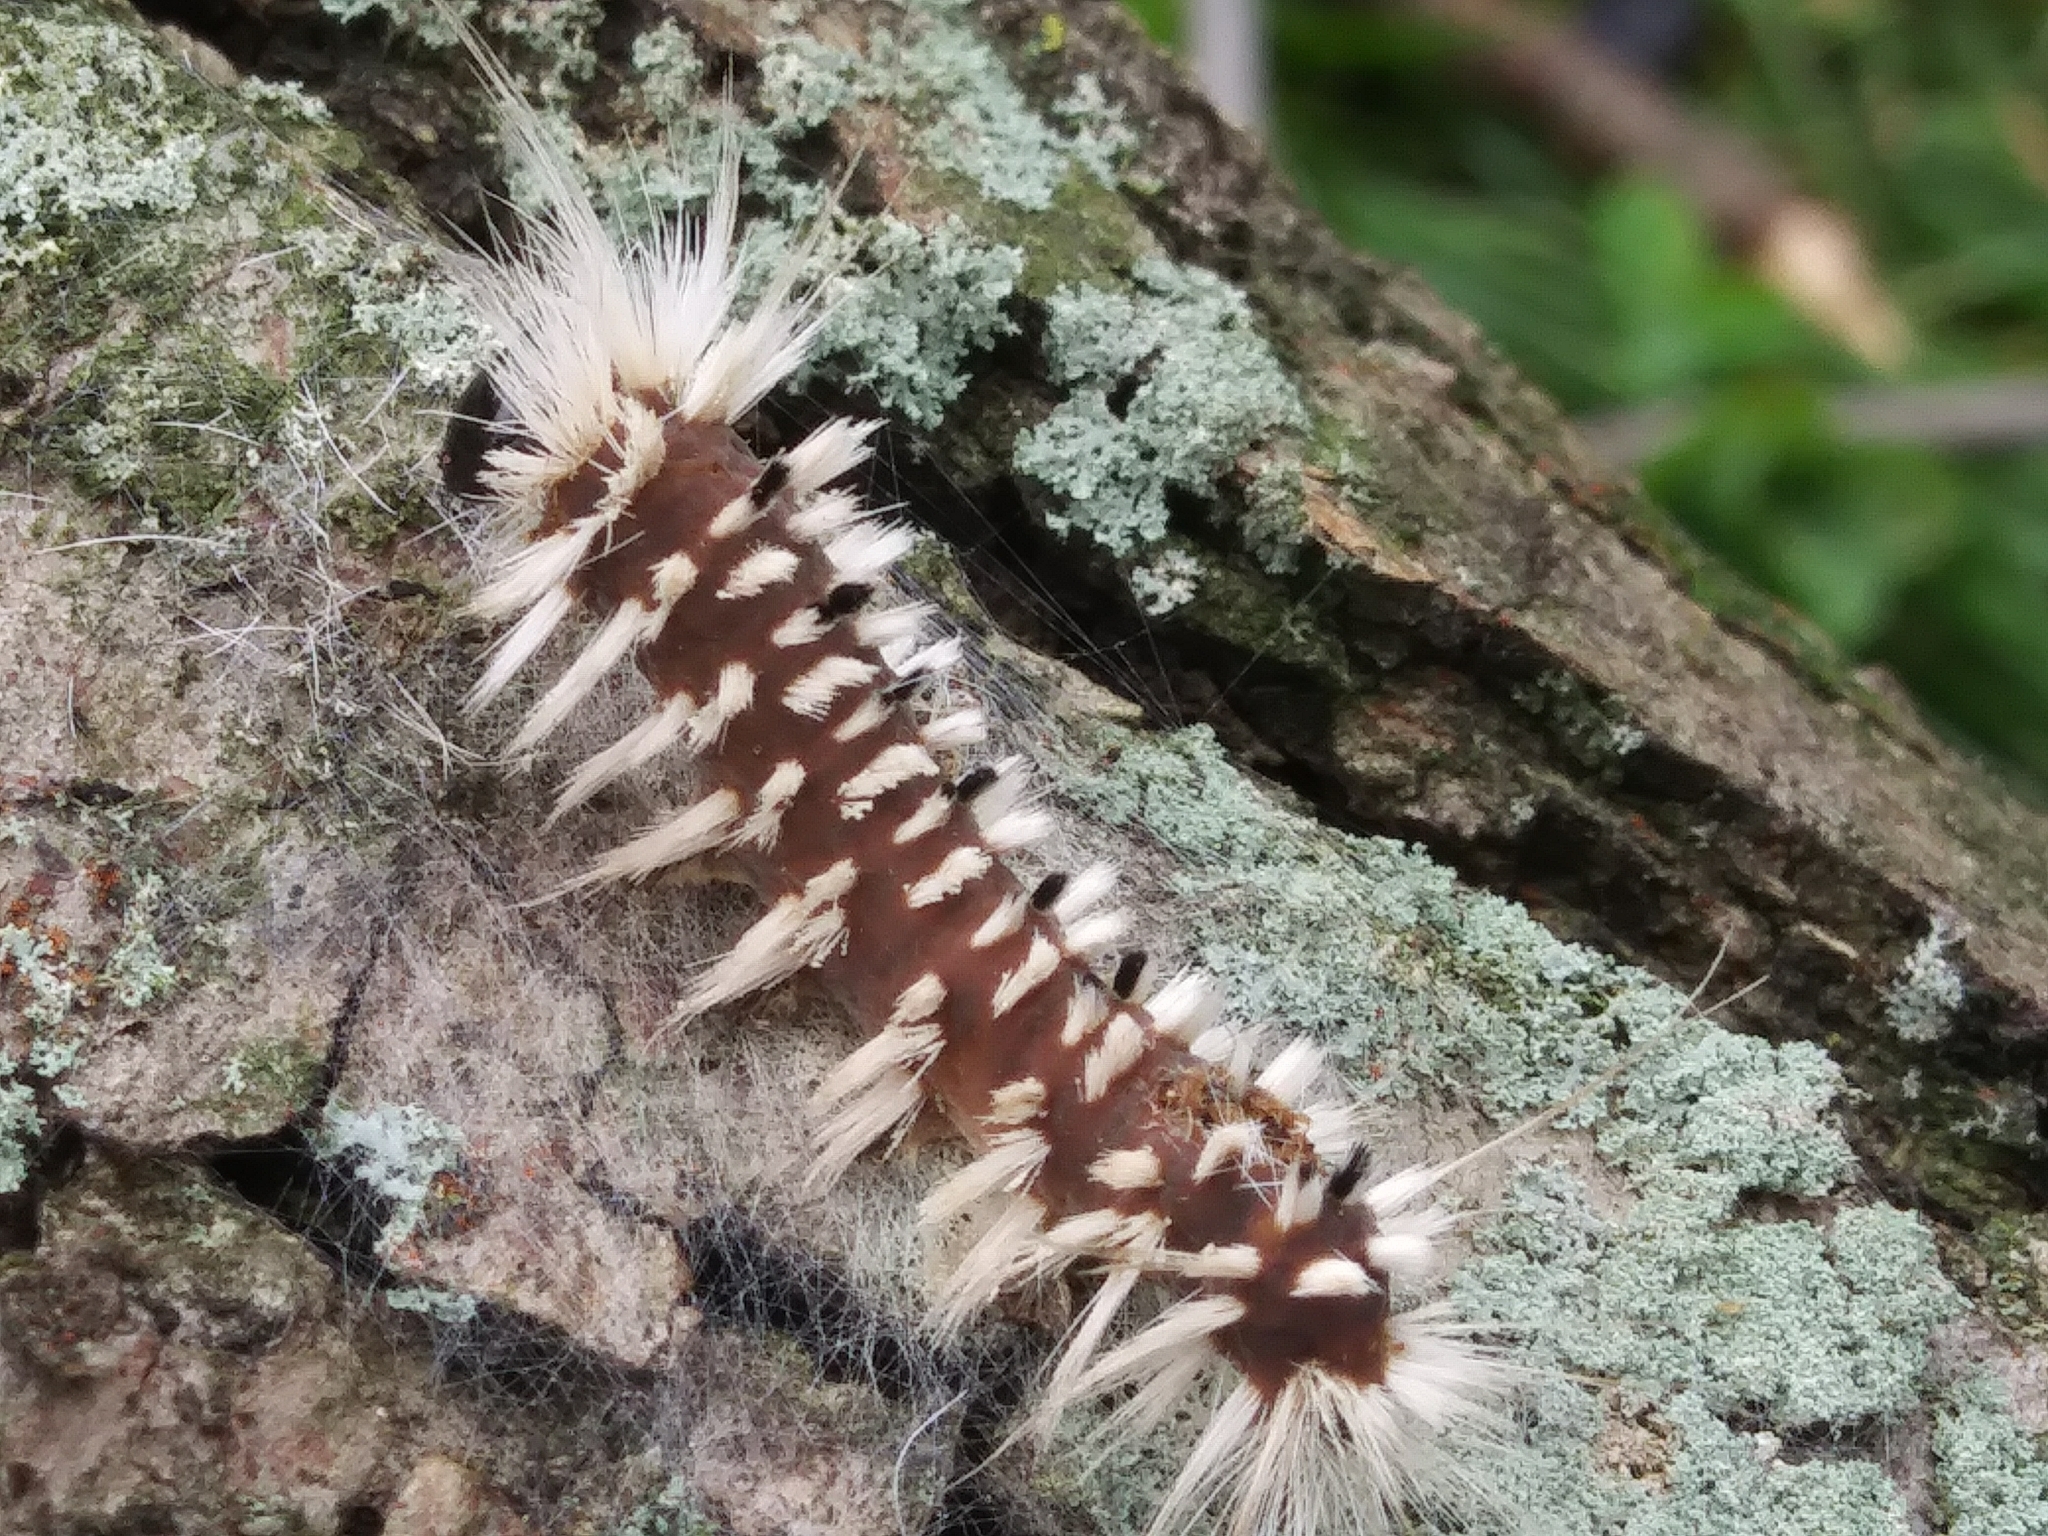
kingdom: Animalia
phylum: Arthropoda
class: Insecta
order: Lepidoptera
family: Erebidae
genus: Lophocampa
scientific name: Lophocampa caryae
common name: Hickory tussock moth
